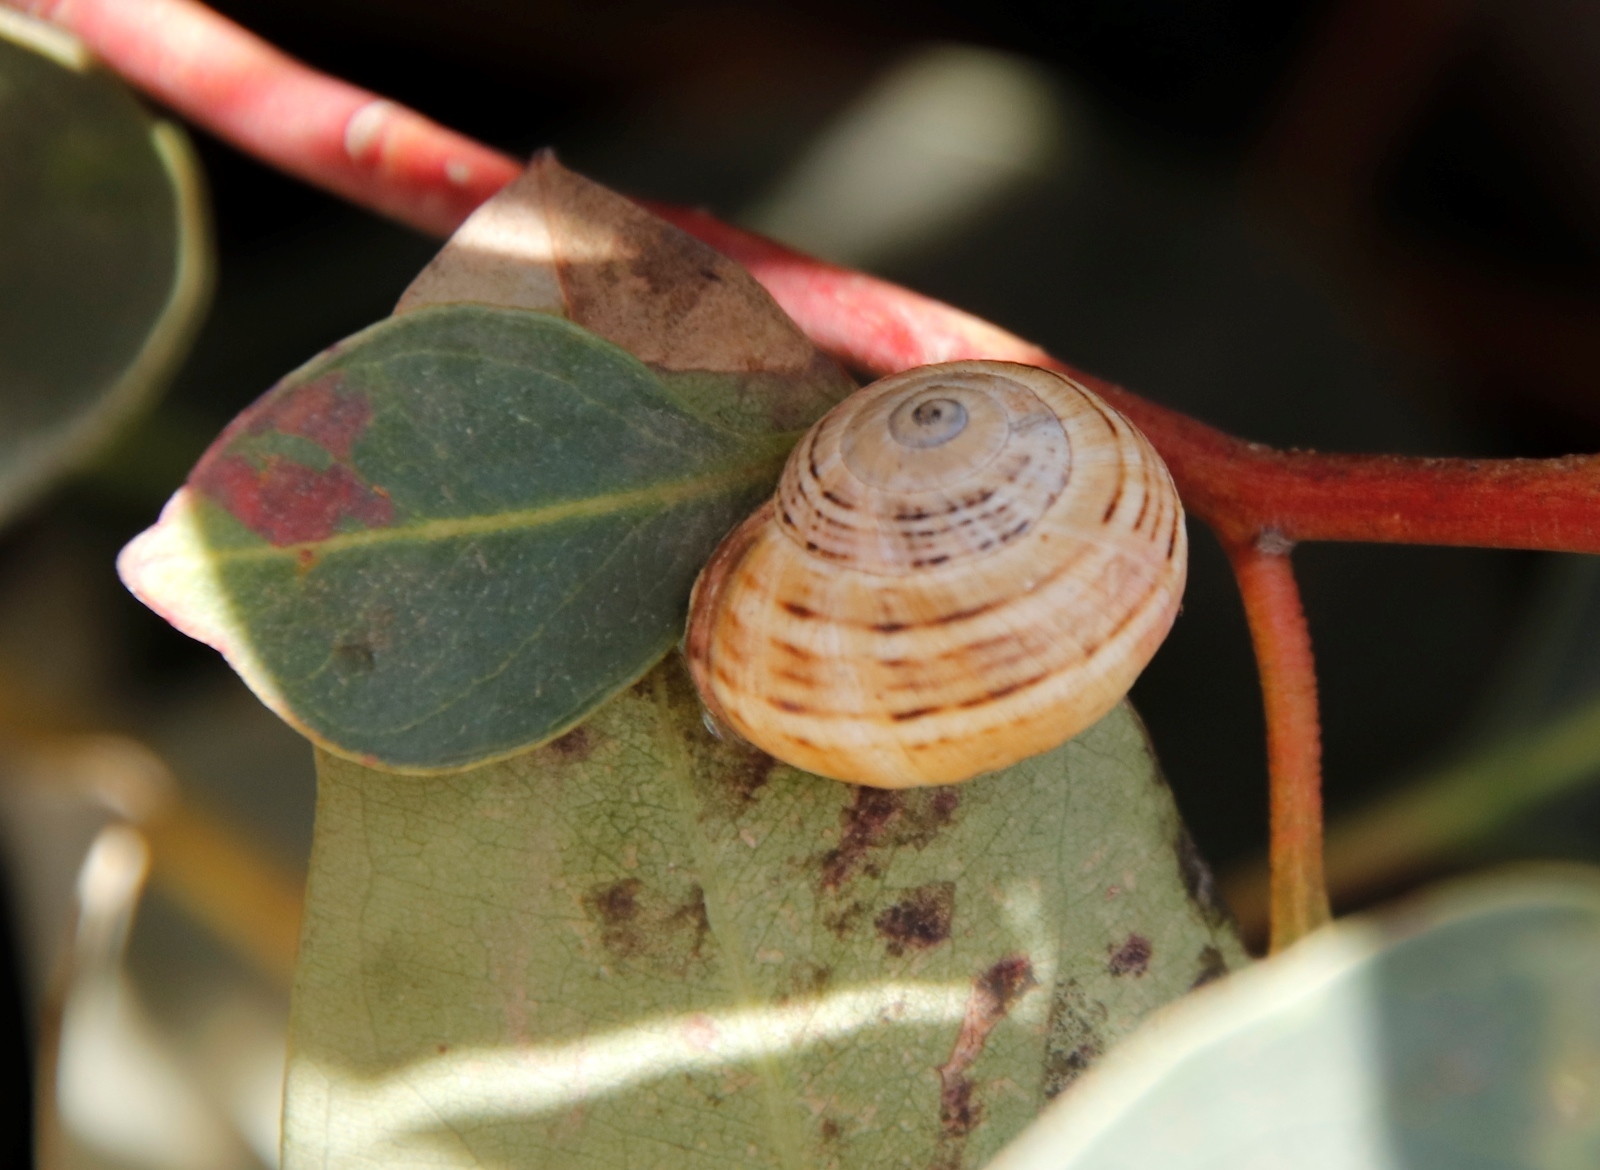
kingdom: Animalia
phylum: Mollusca
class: Gastropoda
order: Stylommatophora
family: Helicidae
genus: Theba
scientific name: Theba pisana
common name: White snail
